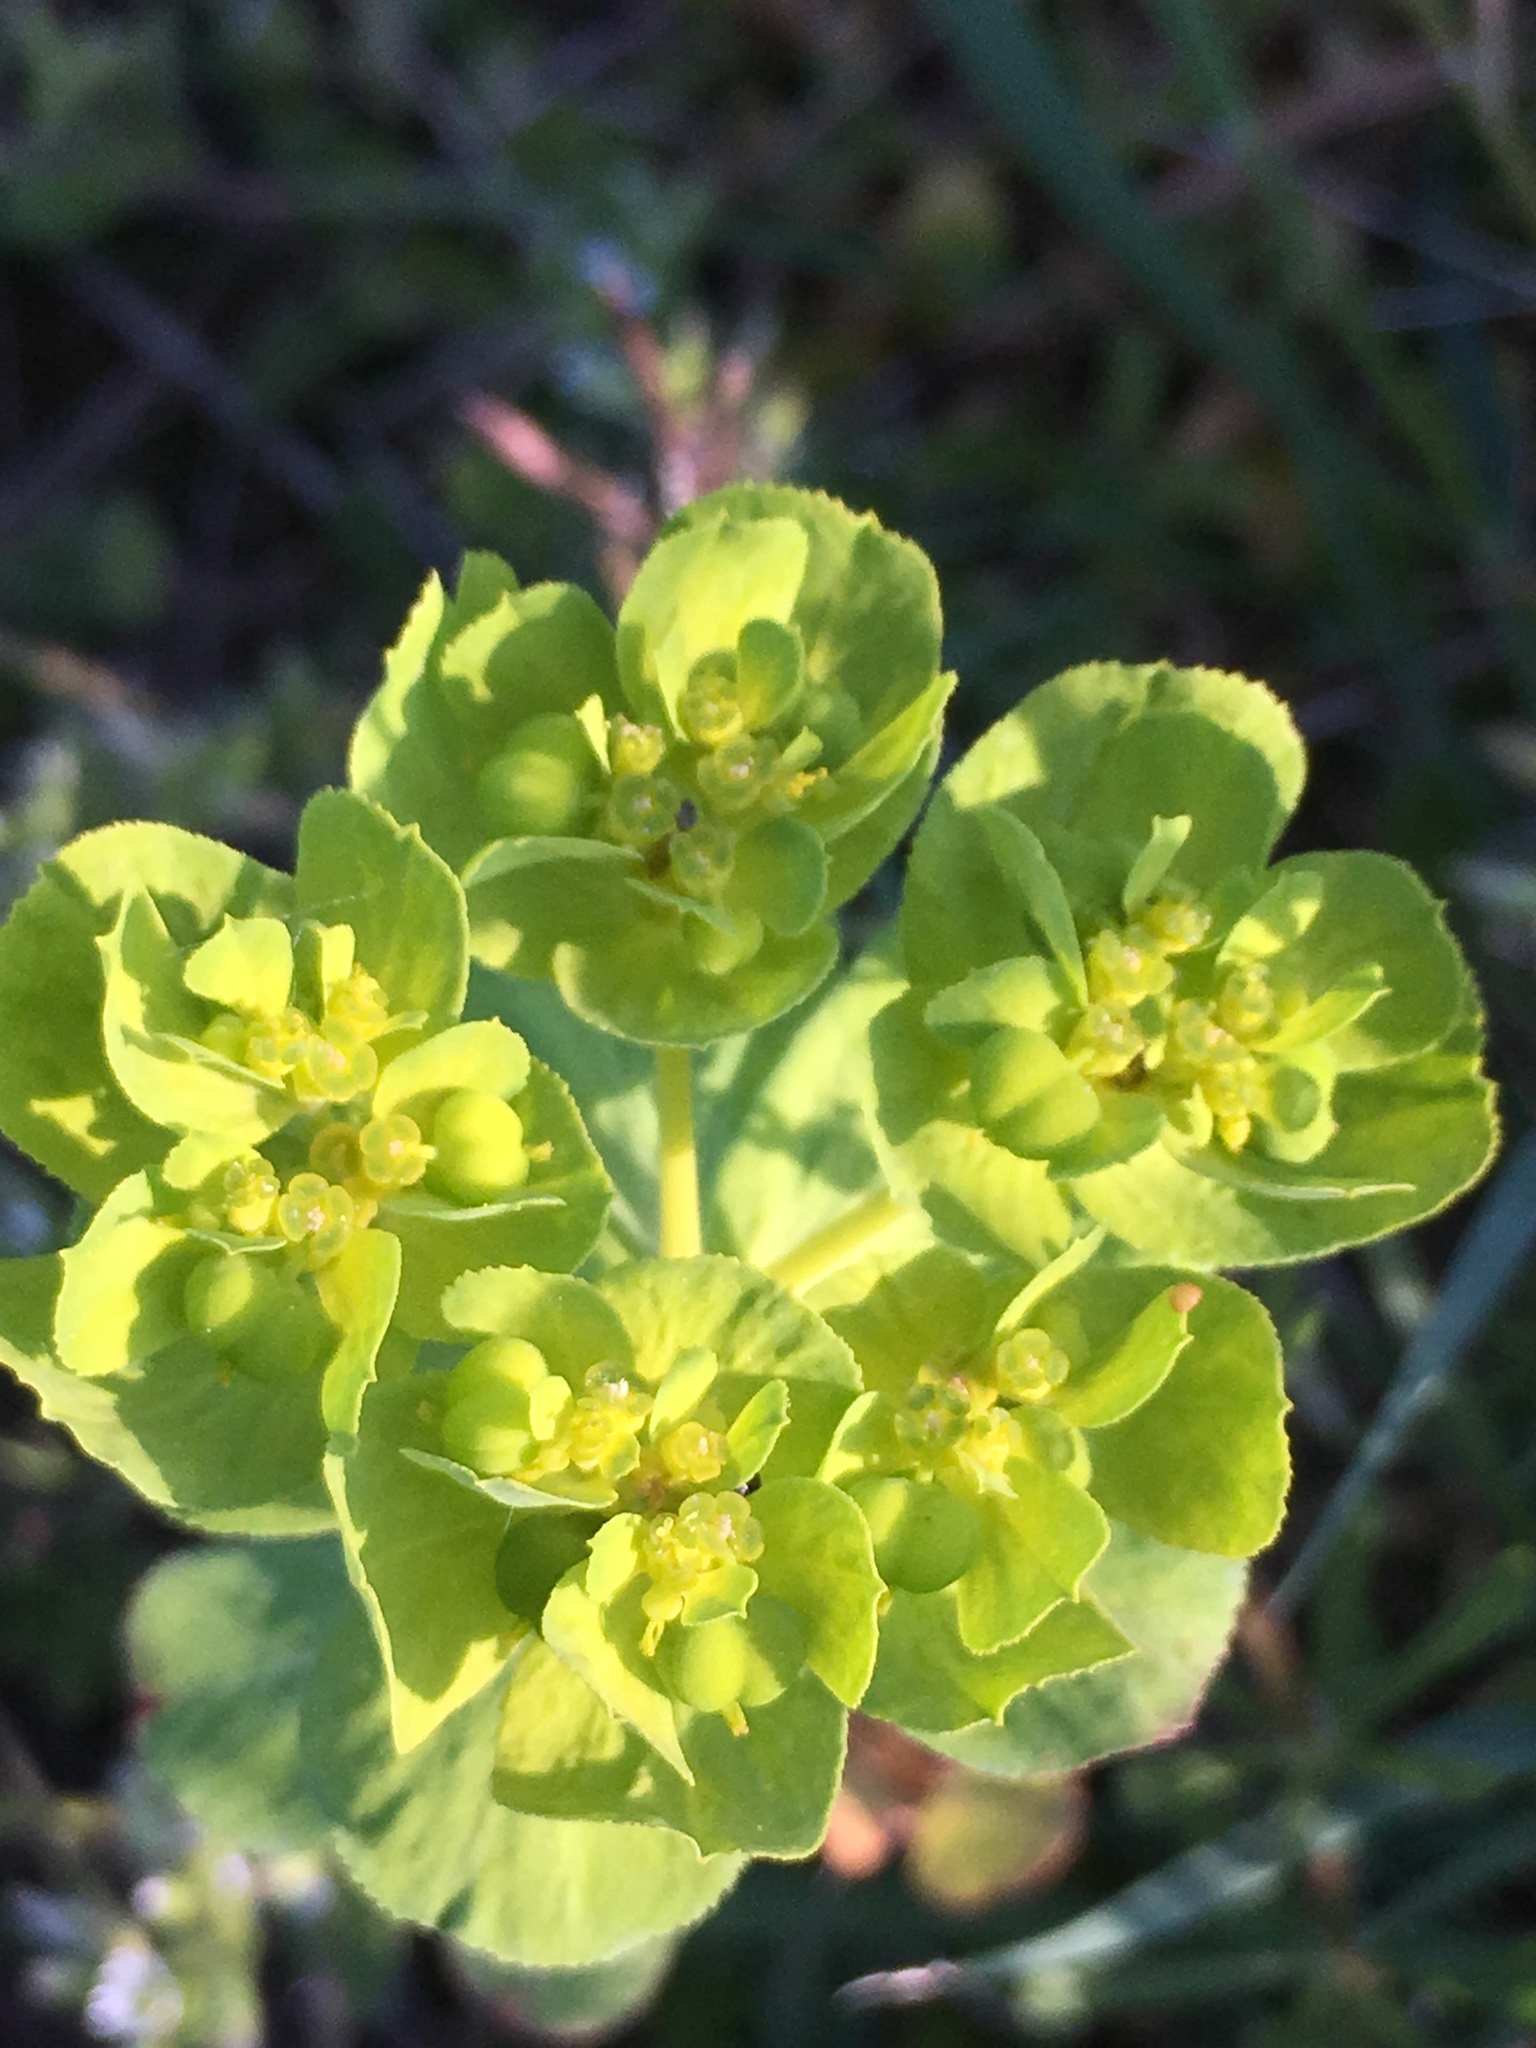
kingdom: Plantae
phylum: Tracheophyta
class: Magnoliopsida
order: Malpighiales
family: Euphorbiaceae
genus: Euphorbia
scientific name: Euphorbia helioscopia
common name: Sun spurge
